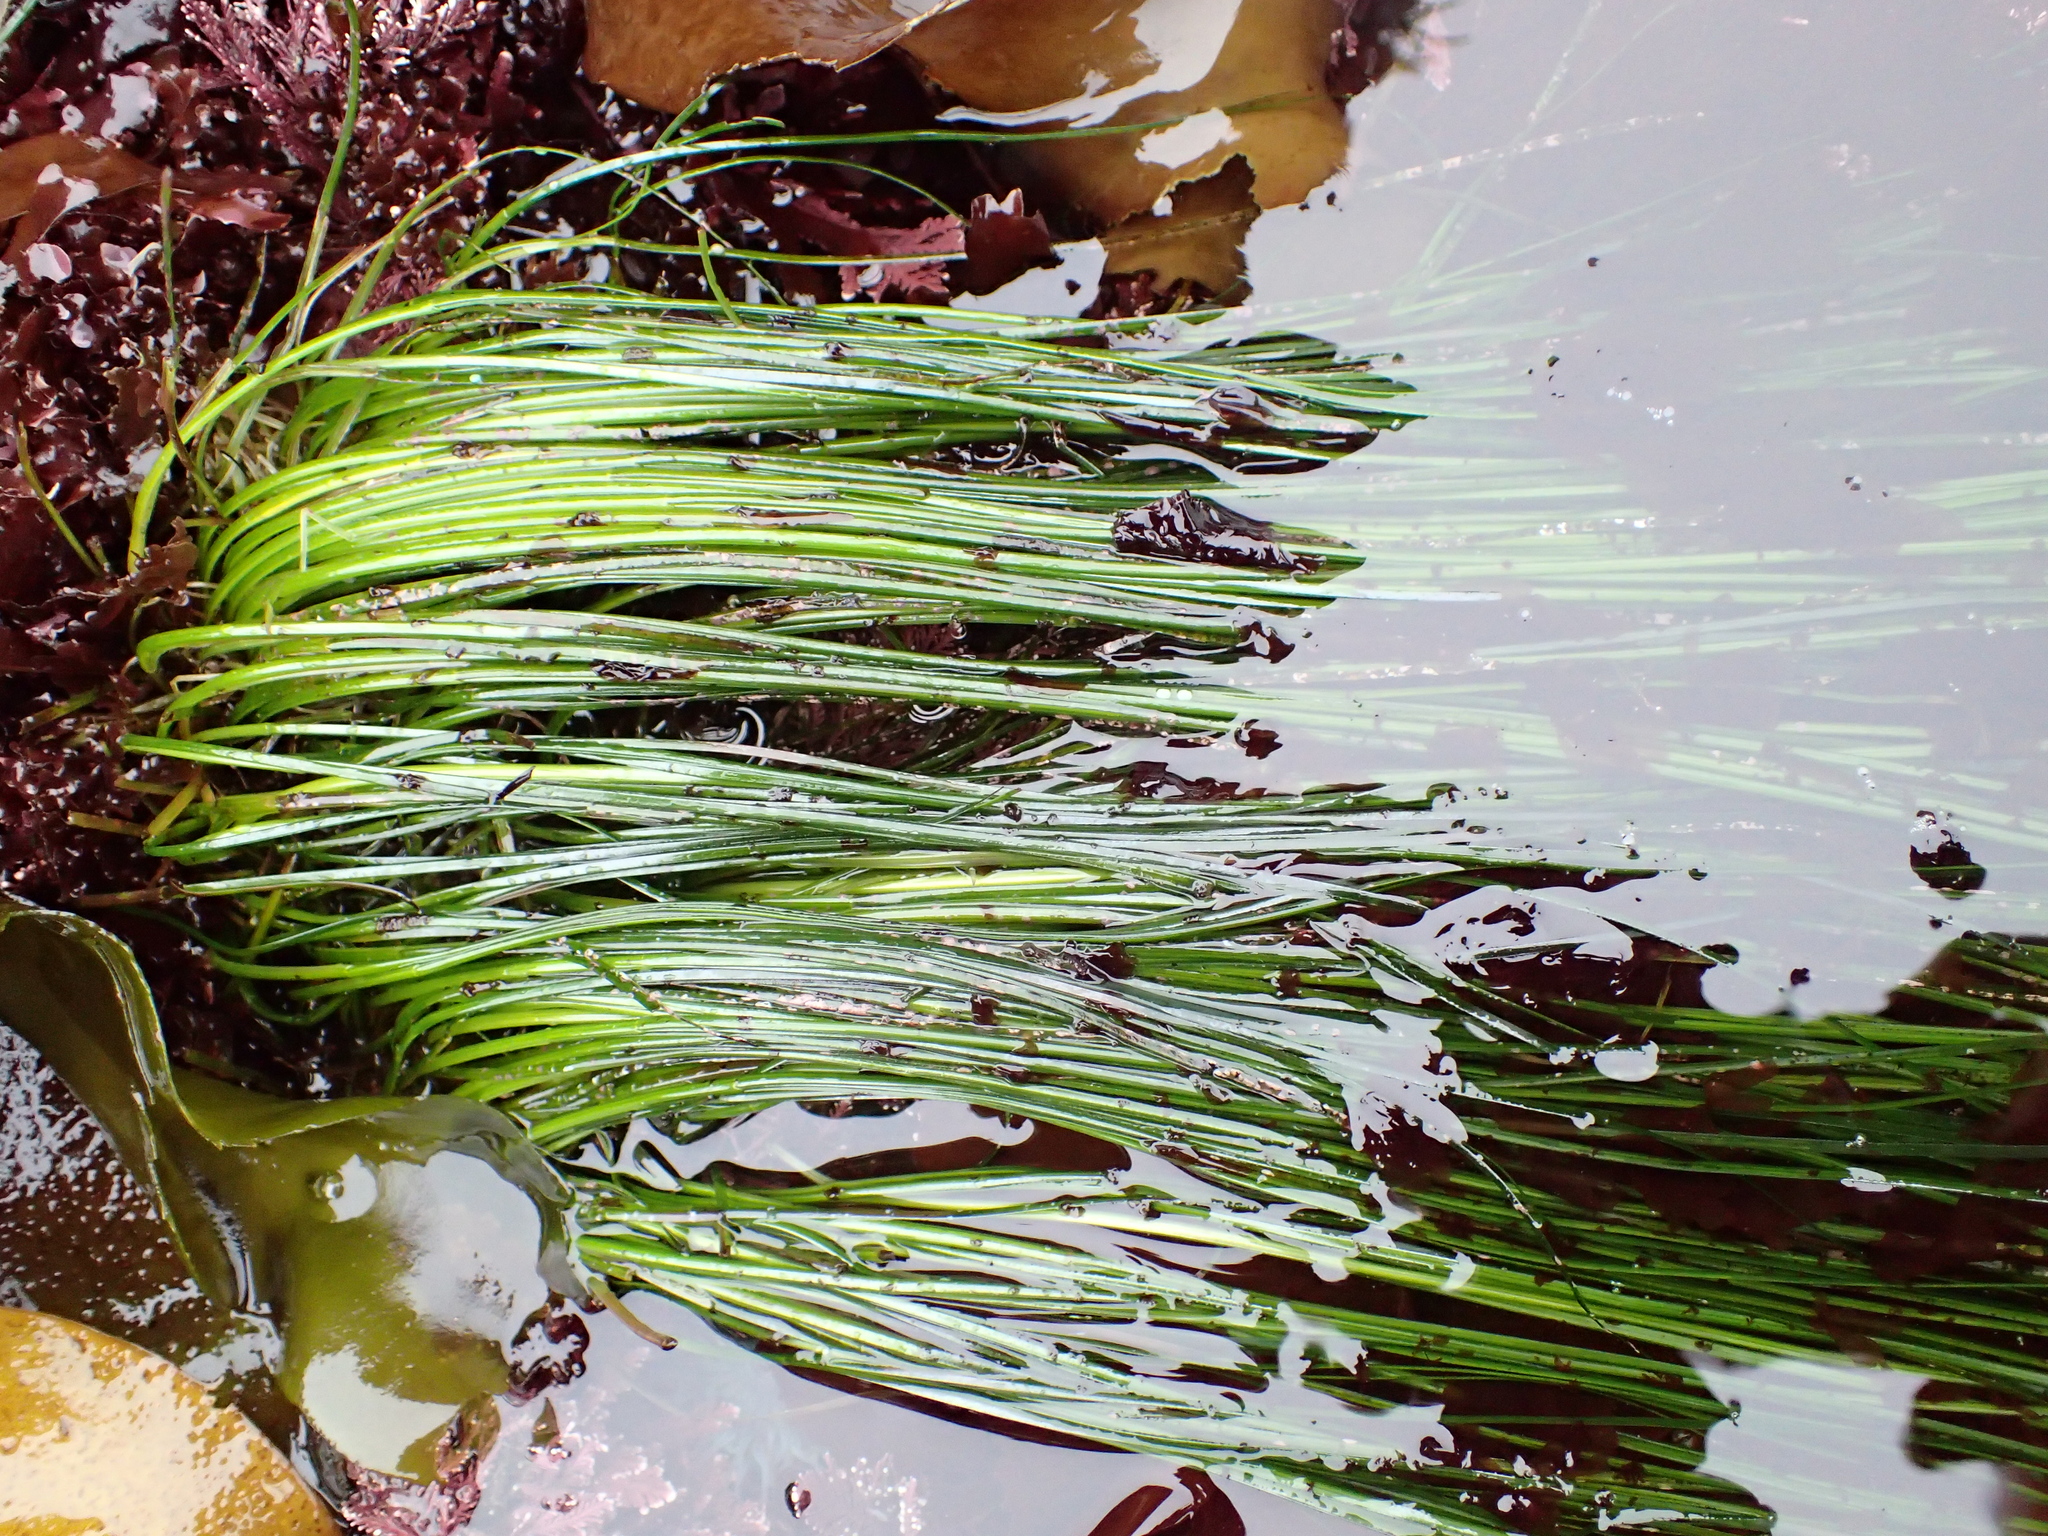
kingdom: Plantae
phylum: Tracheophyta
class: Liliopsida
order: Alismatales
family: Zosteraceae
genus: Phyllospadix
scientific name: Phyllospadix torreyi
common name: Surfgrass
